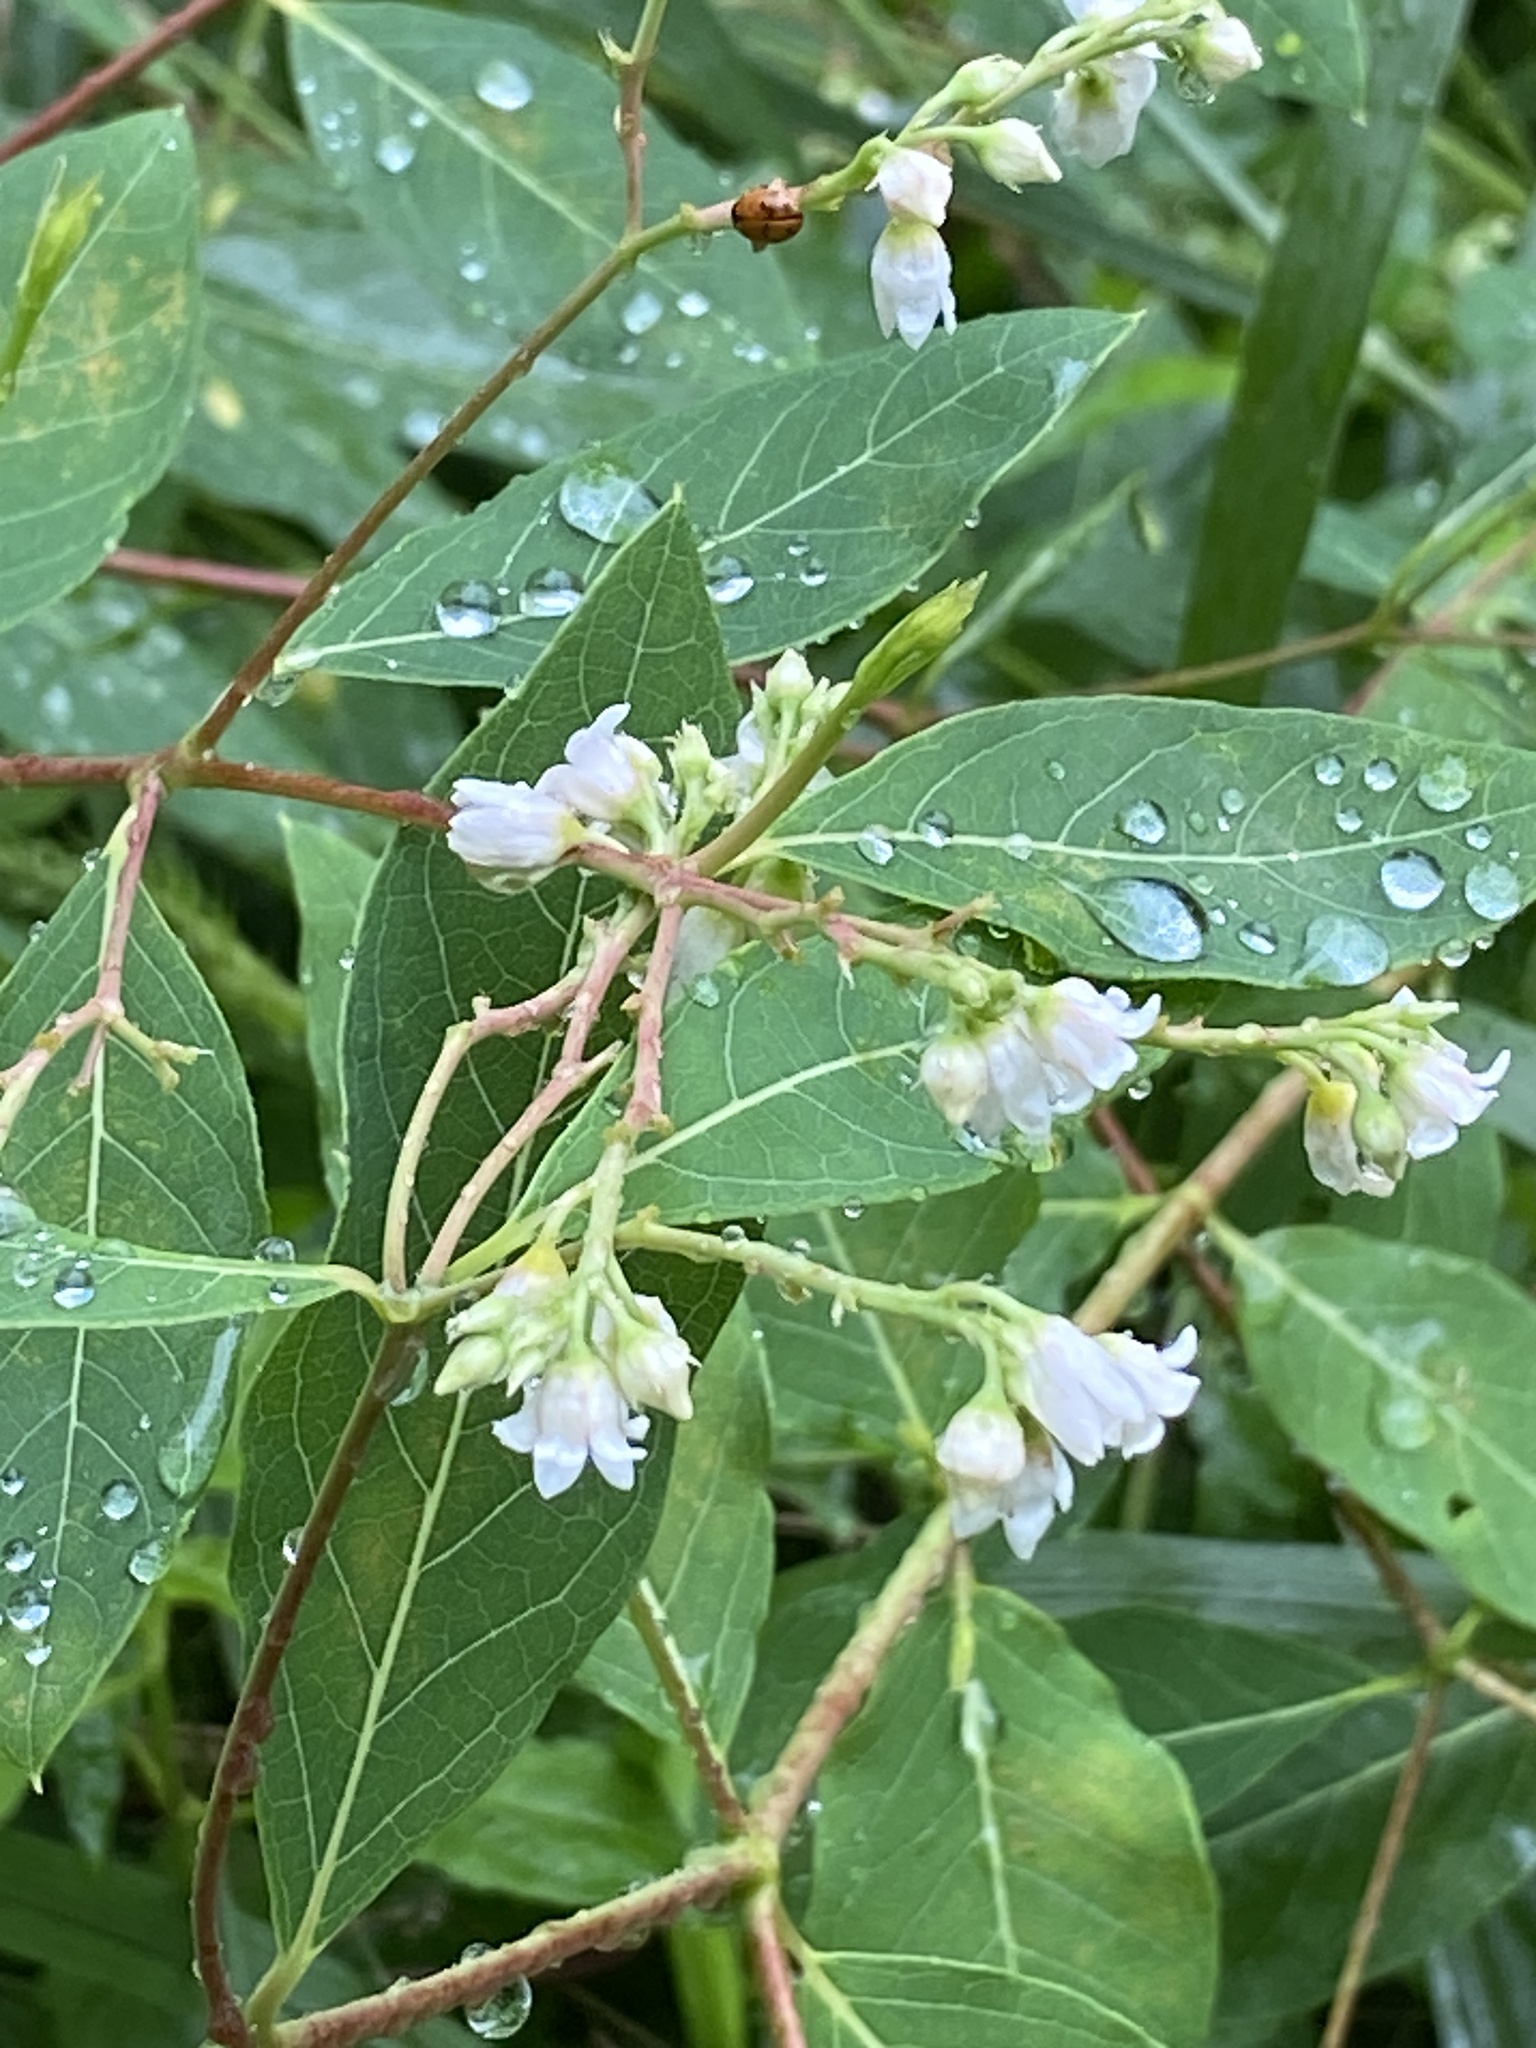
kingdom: Plantae
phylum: Tracheophyta
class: Magnoliopsida
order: Gentianales
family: Apocynaceae
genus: Apocynum
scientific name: Apocynum androsaemifolium
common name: Spreading dogbane
